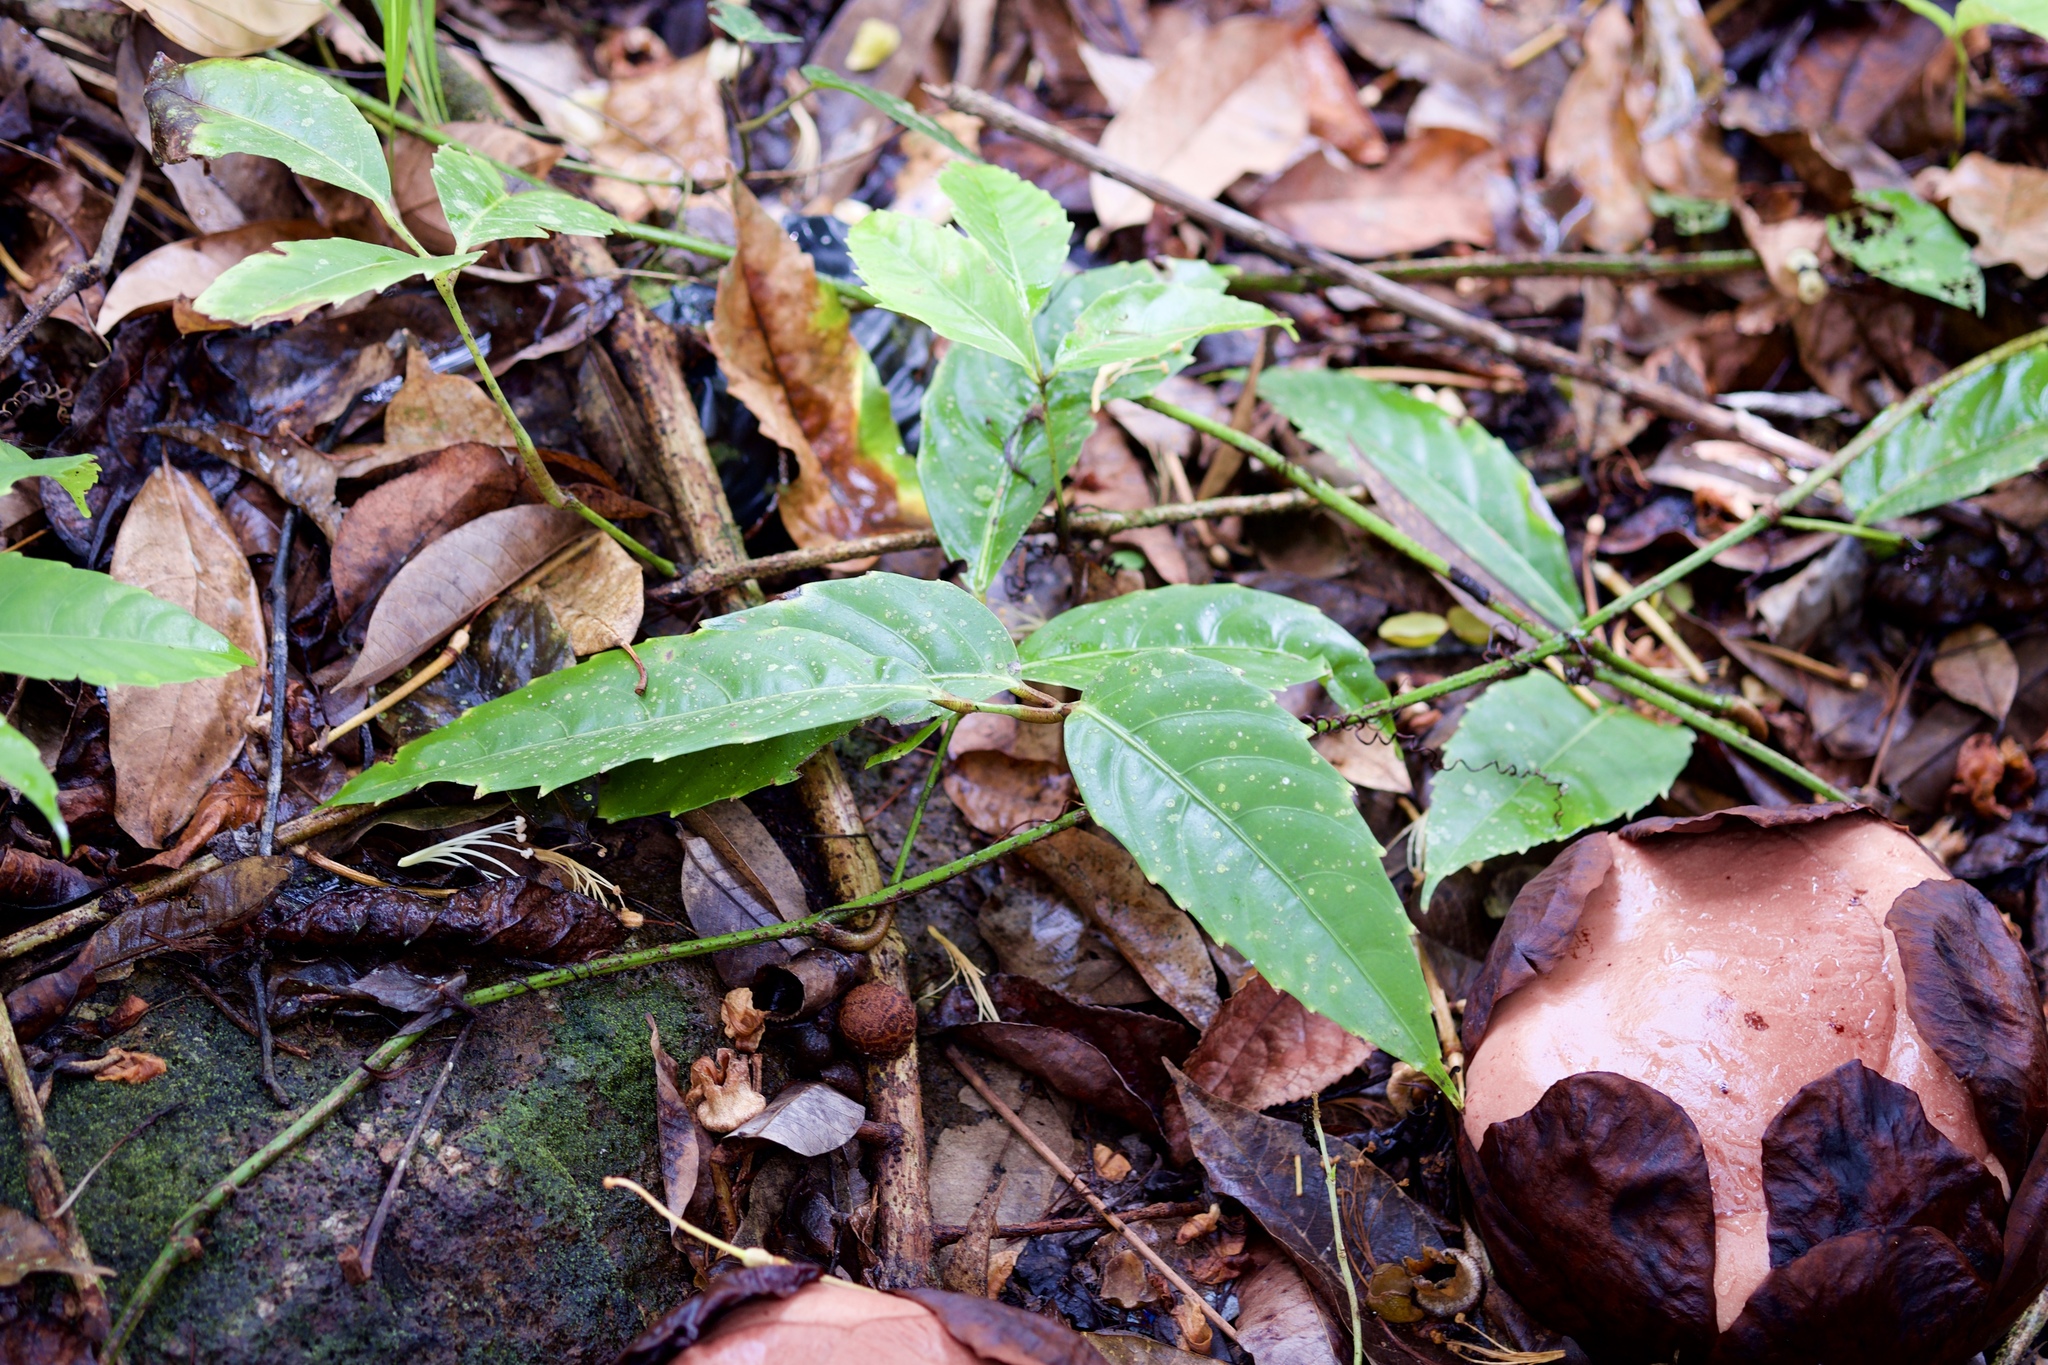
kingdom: Plantae
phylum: Tracheophyta
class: Magnoliopsida
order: Malpighiales
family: Rafflesiaceae
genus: Rafflesia
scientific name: Rafflesia keithii
